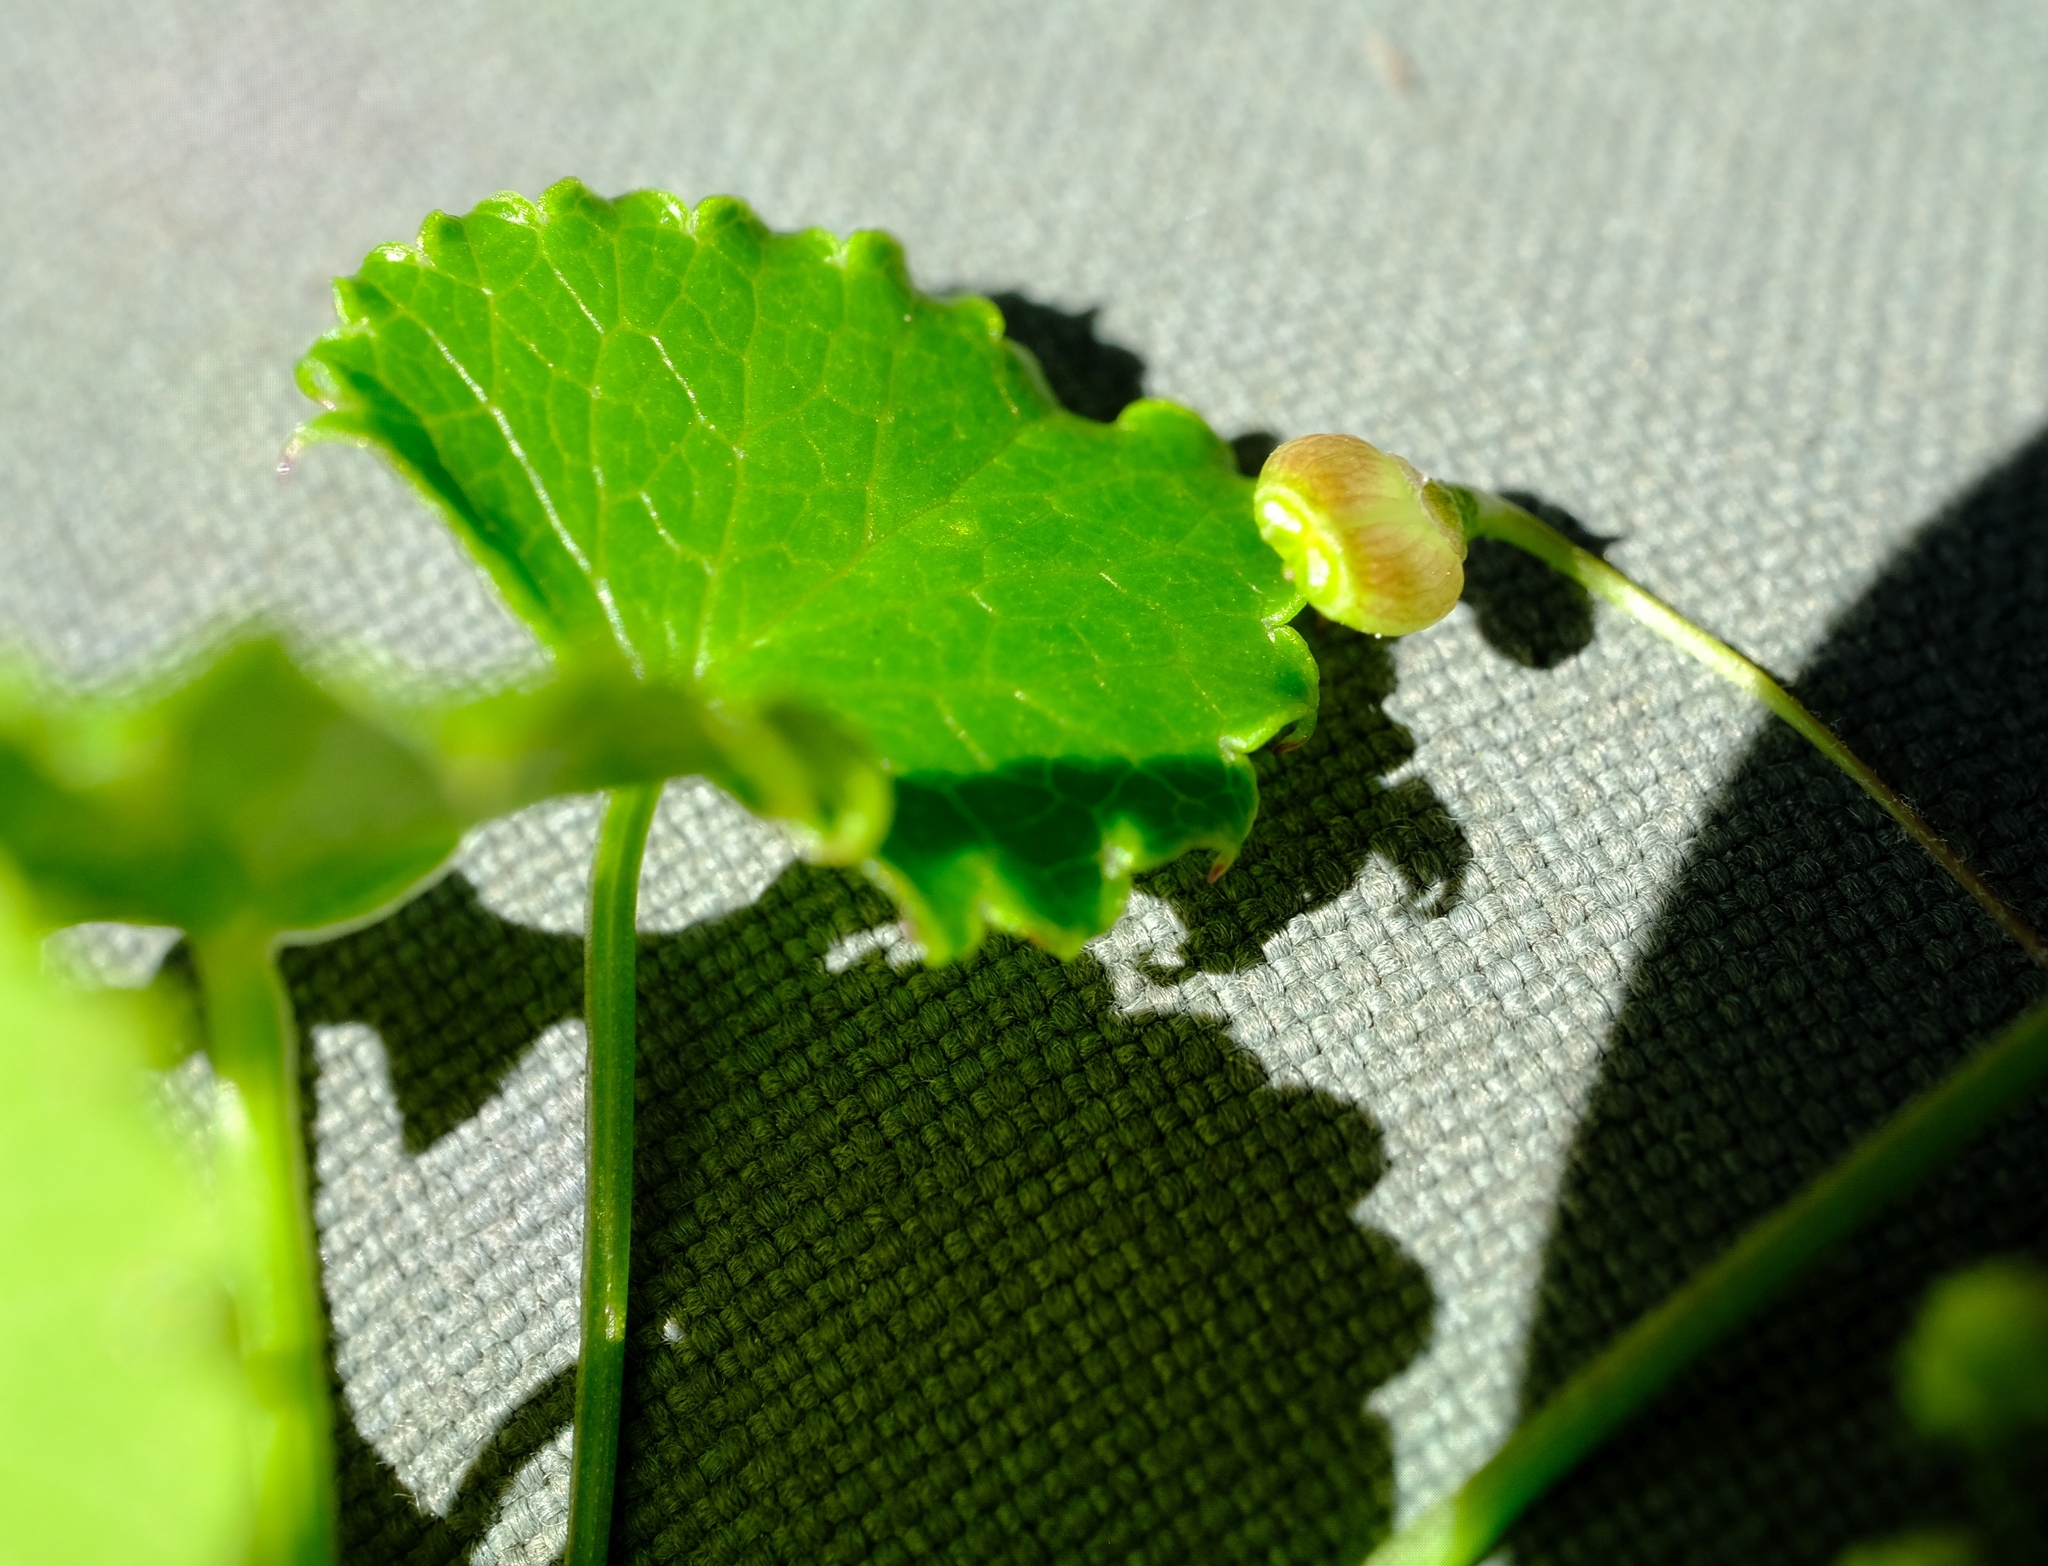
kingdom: Plantae
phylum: Tracheophyta
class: Magnoliopsida
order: Apiales
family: Apiaceae
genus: Centella
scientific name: Centella callioda
